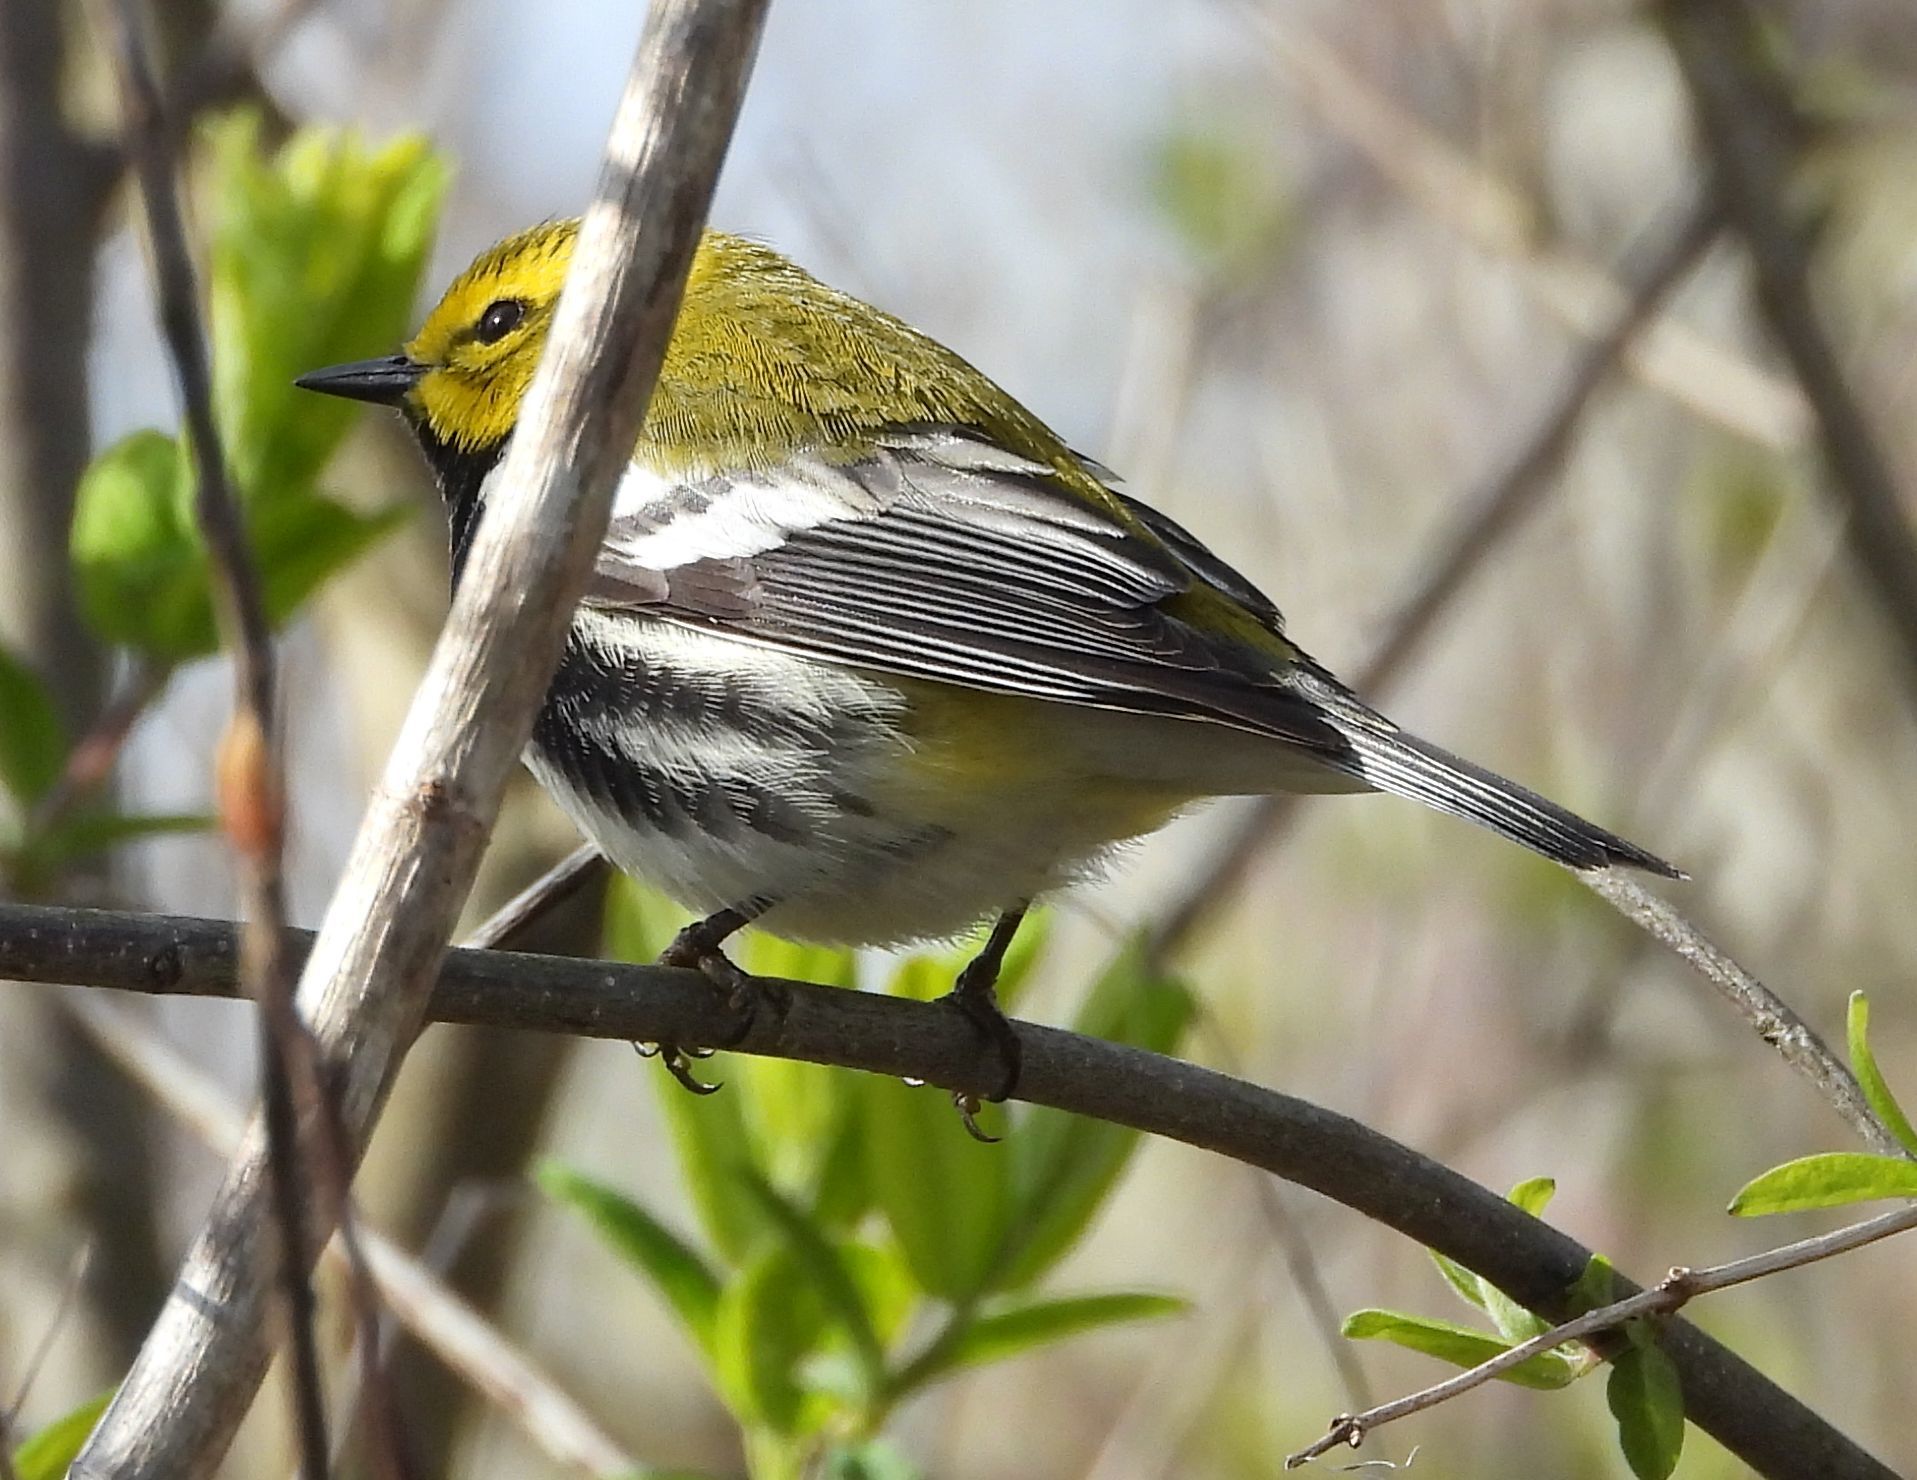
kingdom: Animalia
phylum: Chordata
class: Aves
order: Passeriformes
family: Parulidae
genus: Setophaga
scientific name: Setophaga virens
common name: Black-throated green warbler
